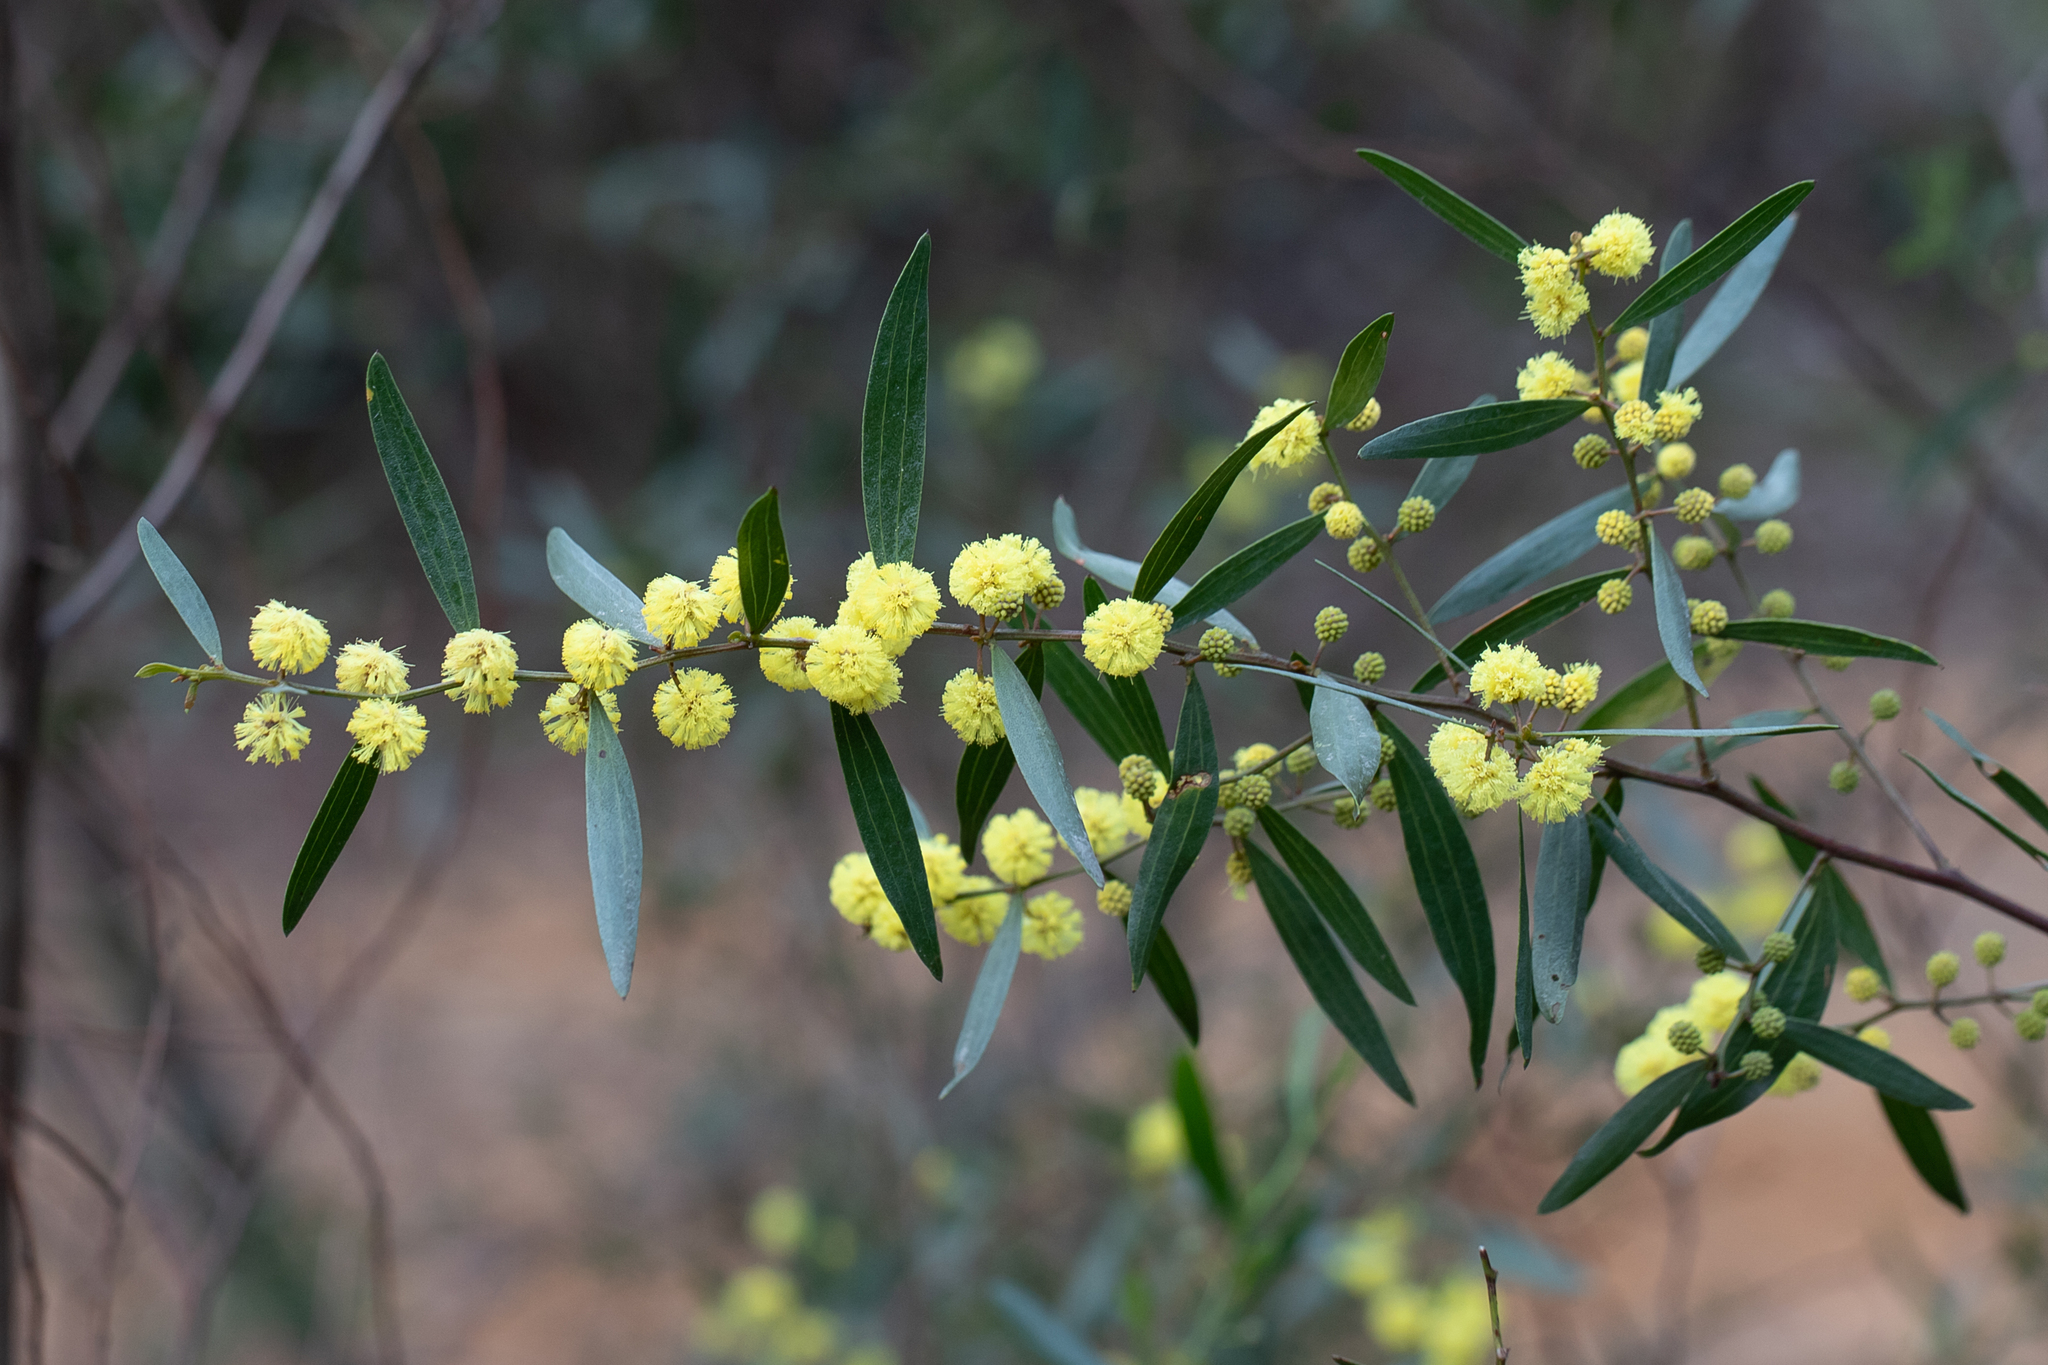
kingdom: Plantae
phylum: Tracheophyta
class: Magnoliopsida
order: Fabales
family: Fabaceae
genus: Acacia
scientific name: Acacia verniciflua
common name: Varnish wattle
